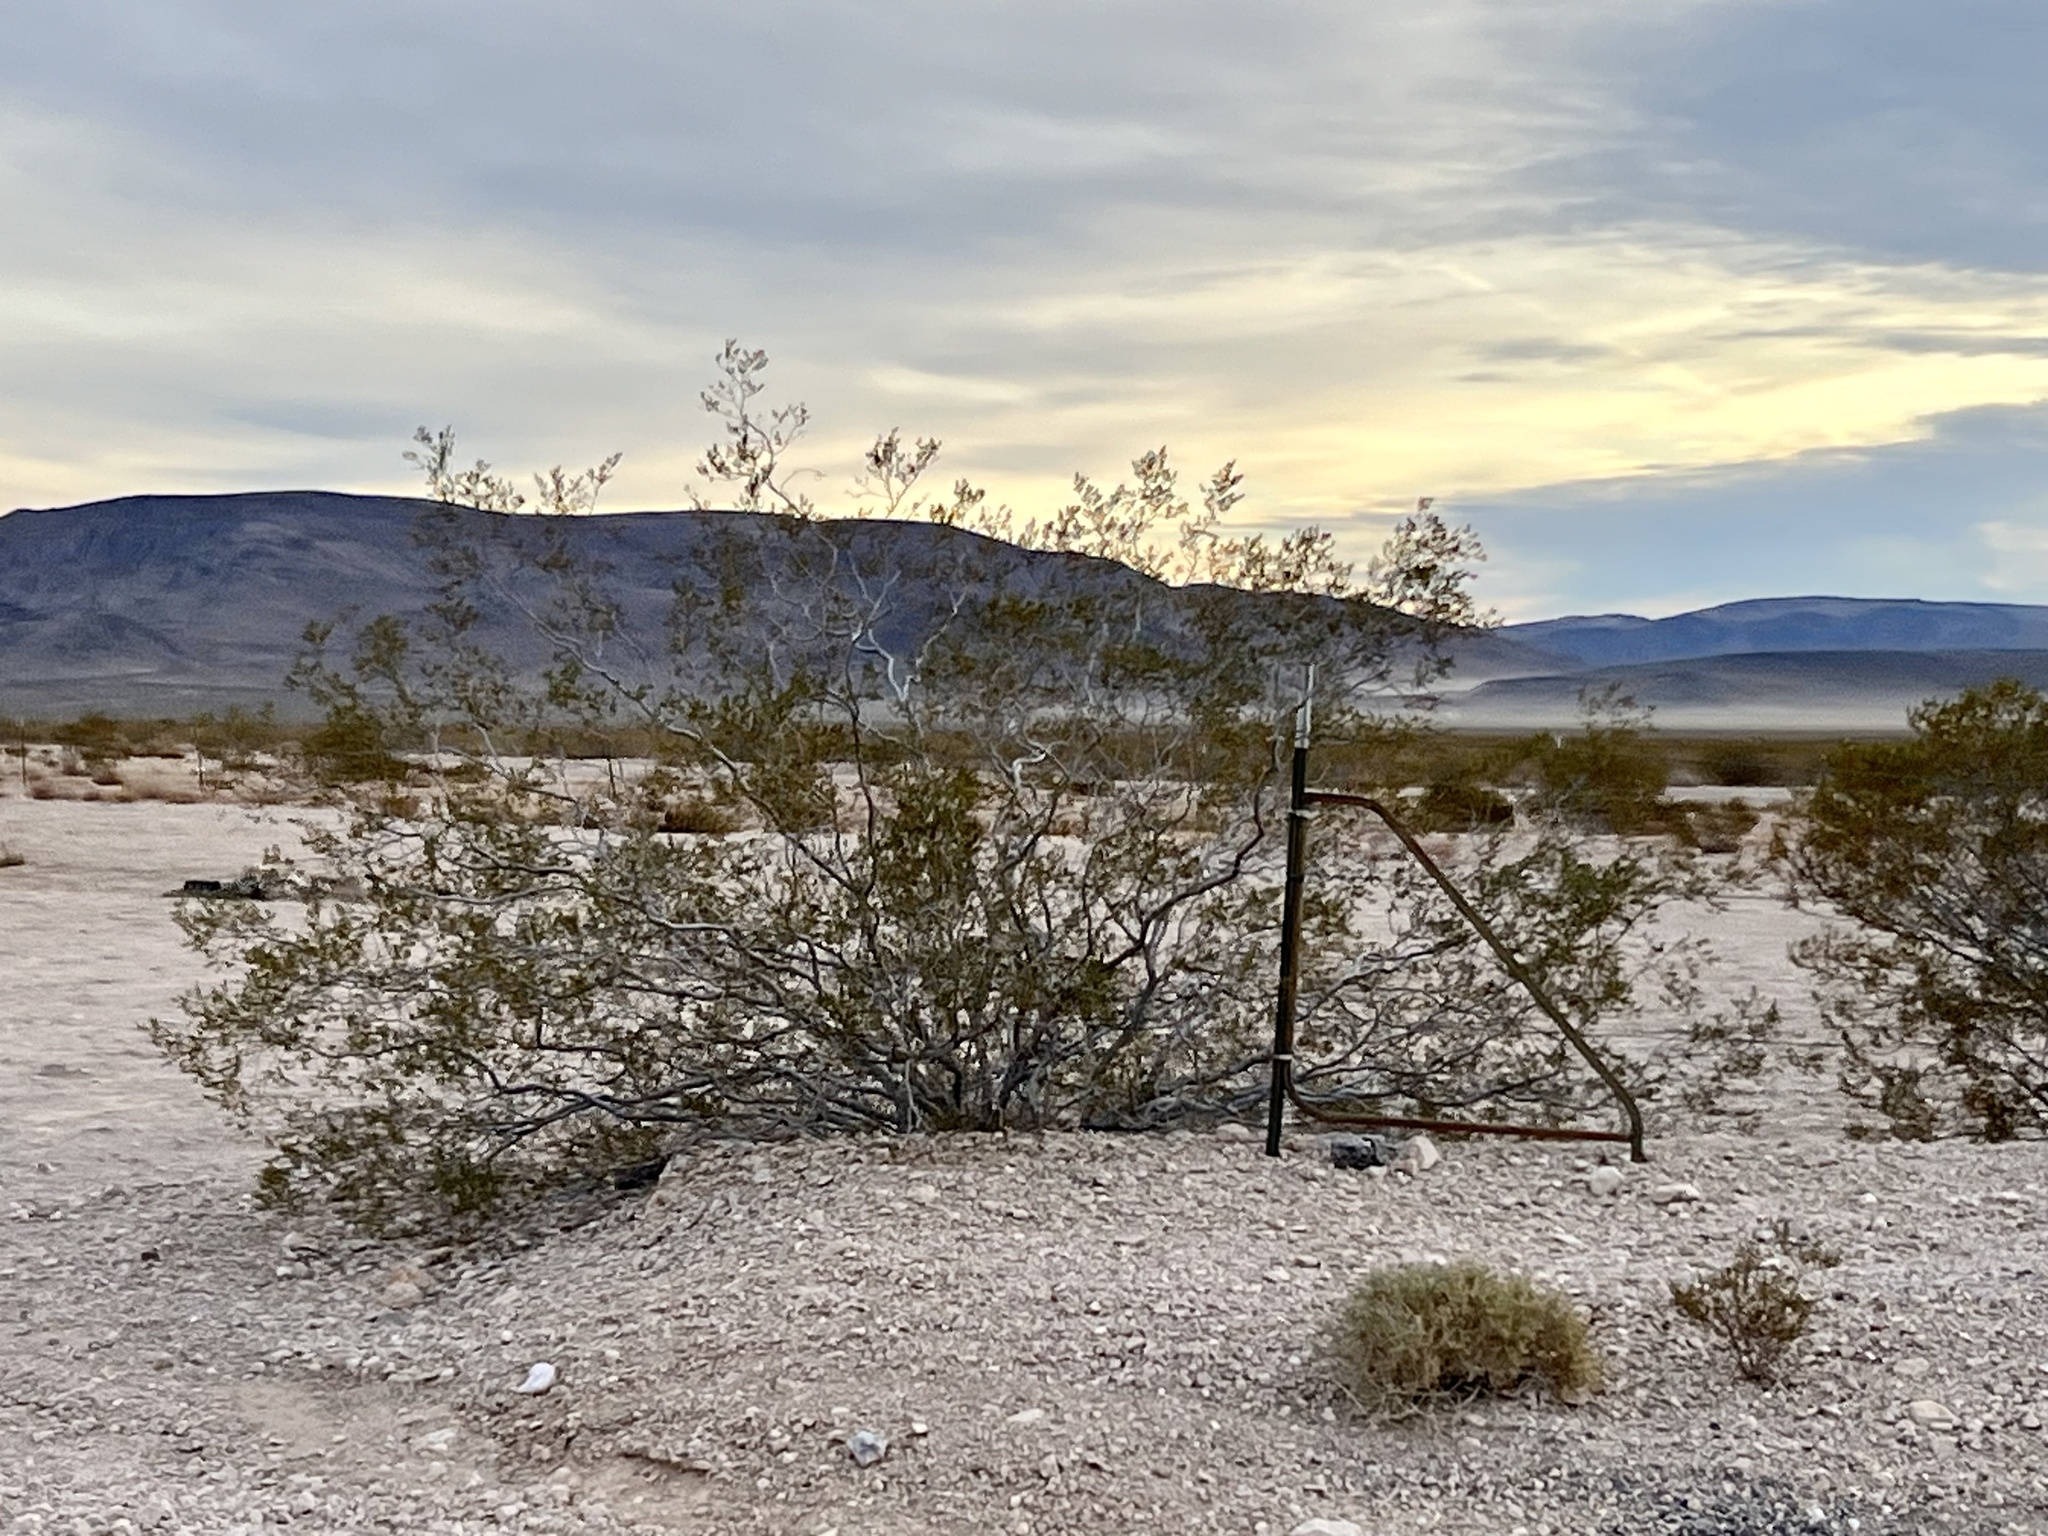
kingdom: Plantae
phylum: Tracheophyta
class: Magnoliopsida
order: Zygophyllales
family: Zygophyllaceae
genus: Larrea
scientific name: Larrea tridentata
